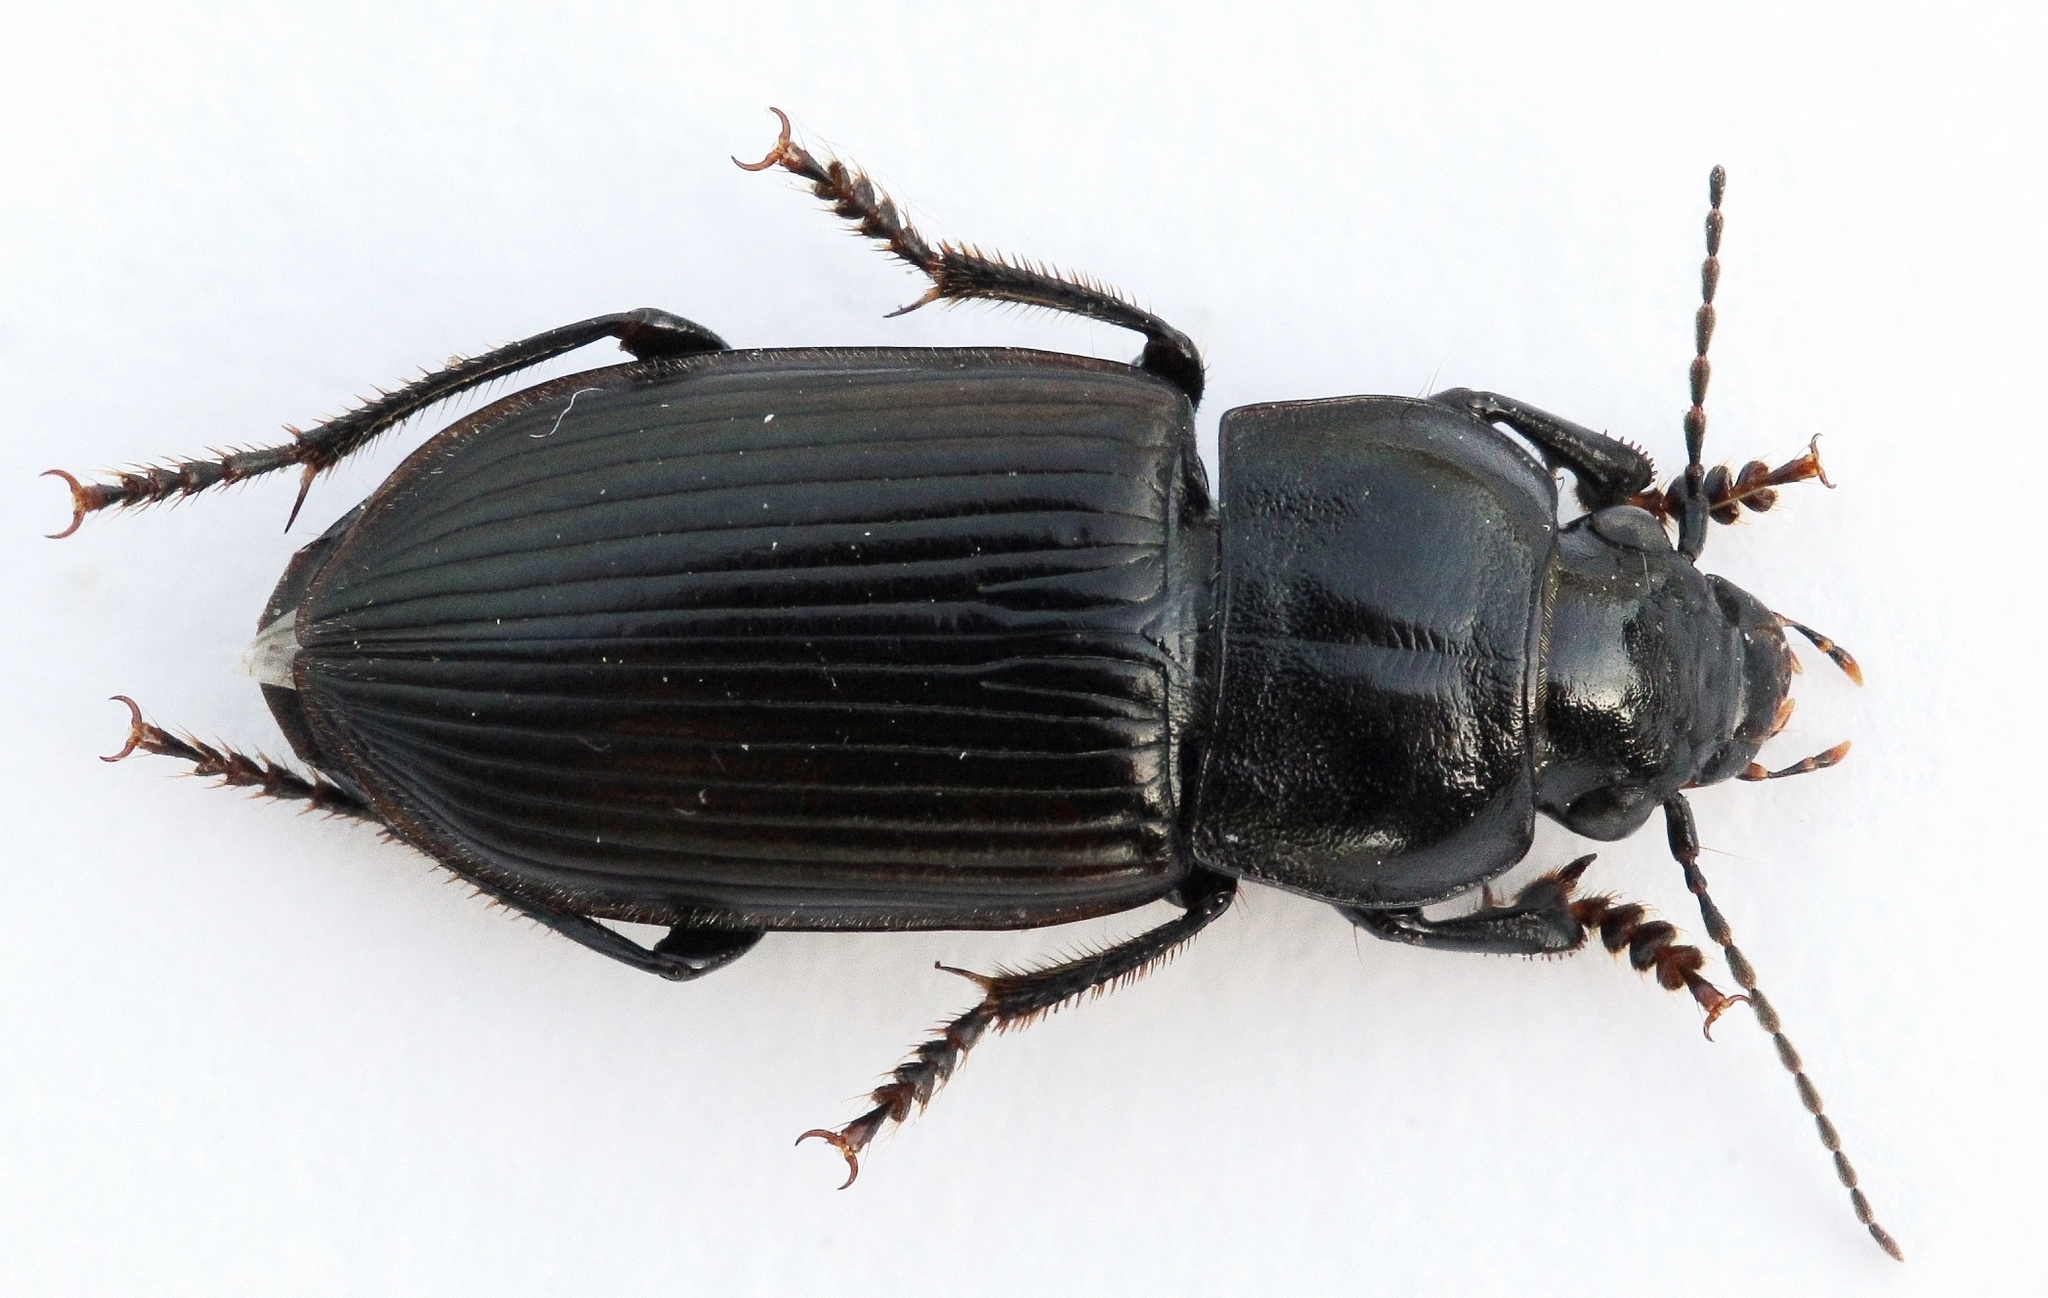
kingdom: Animalia
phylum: Arthropoda
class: Insecta
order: Coleoptera
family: Carabidae
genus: Anisodactylus
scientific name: Anisodactylus signatus
